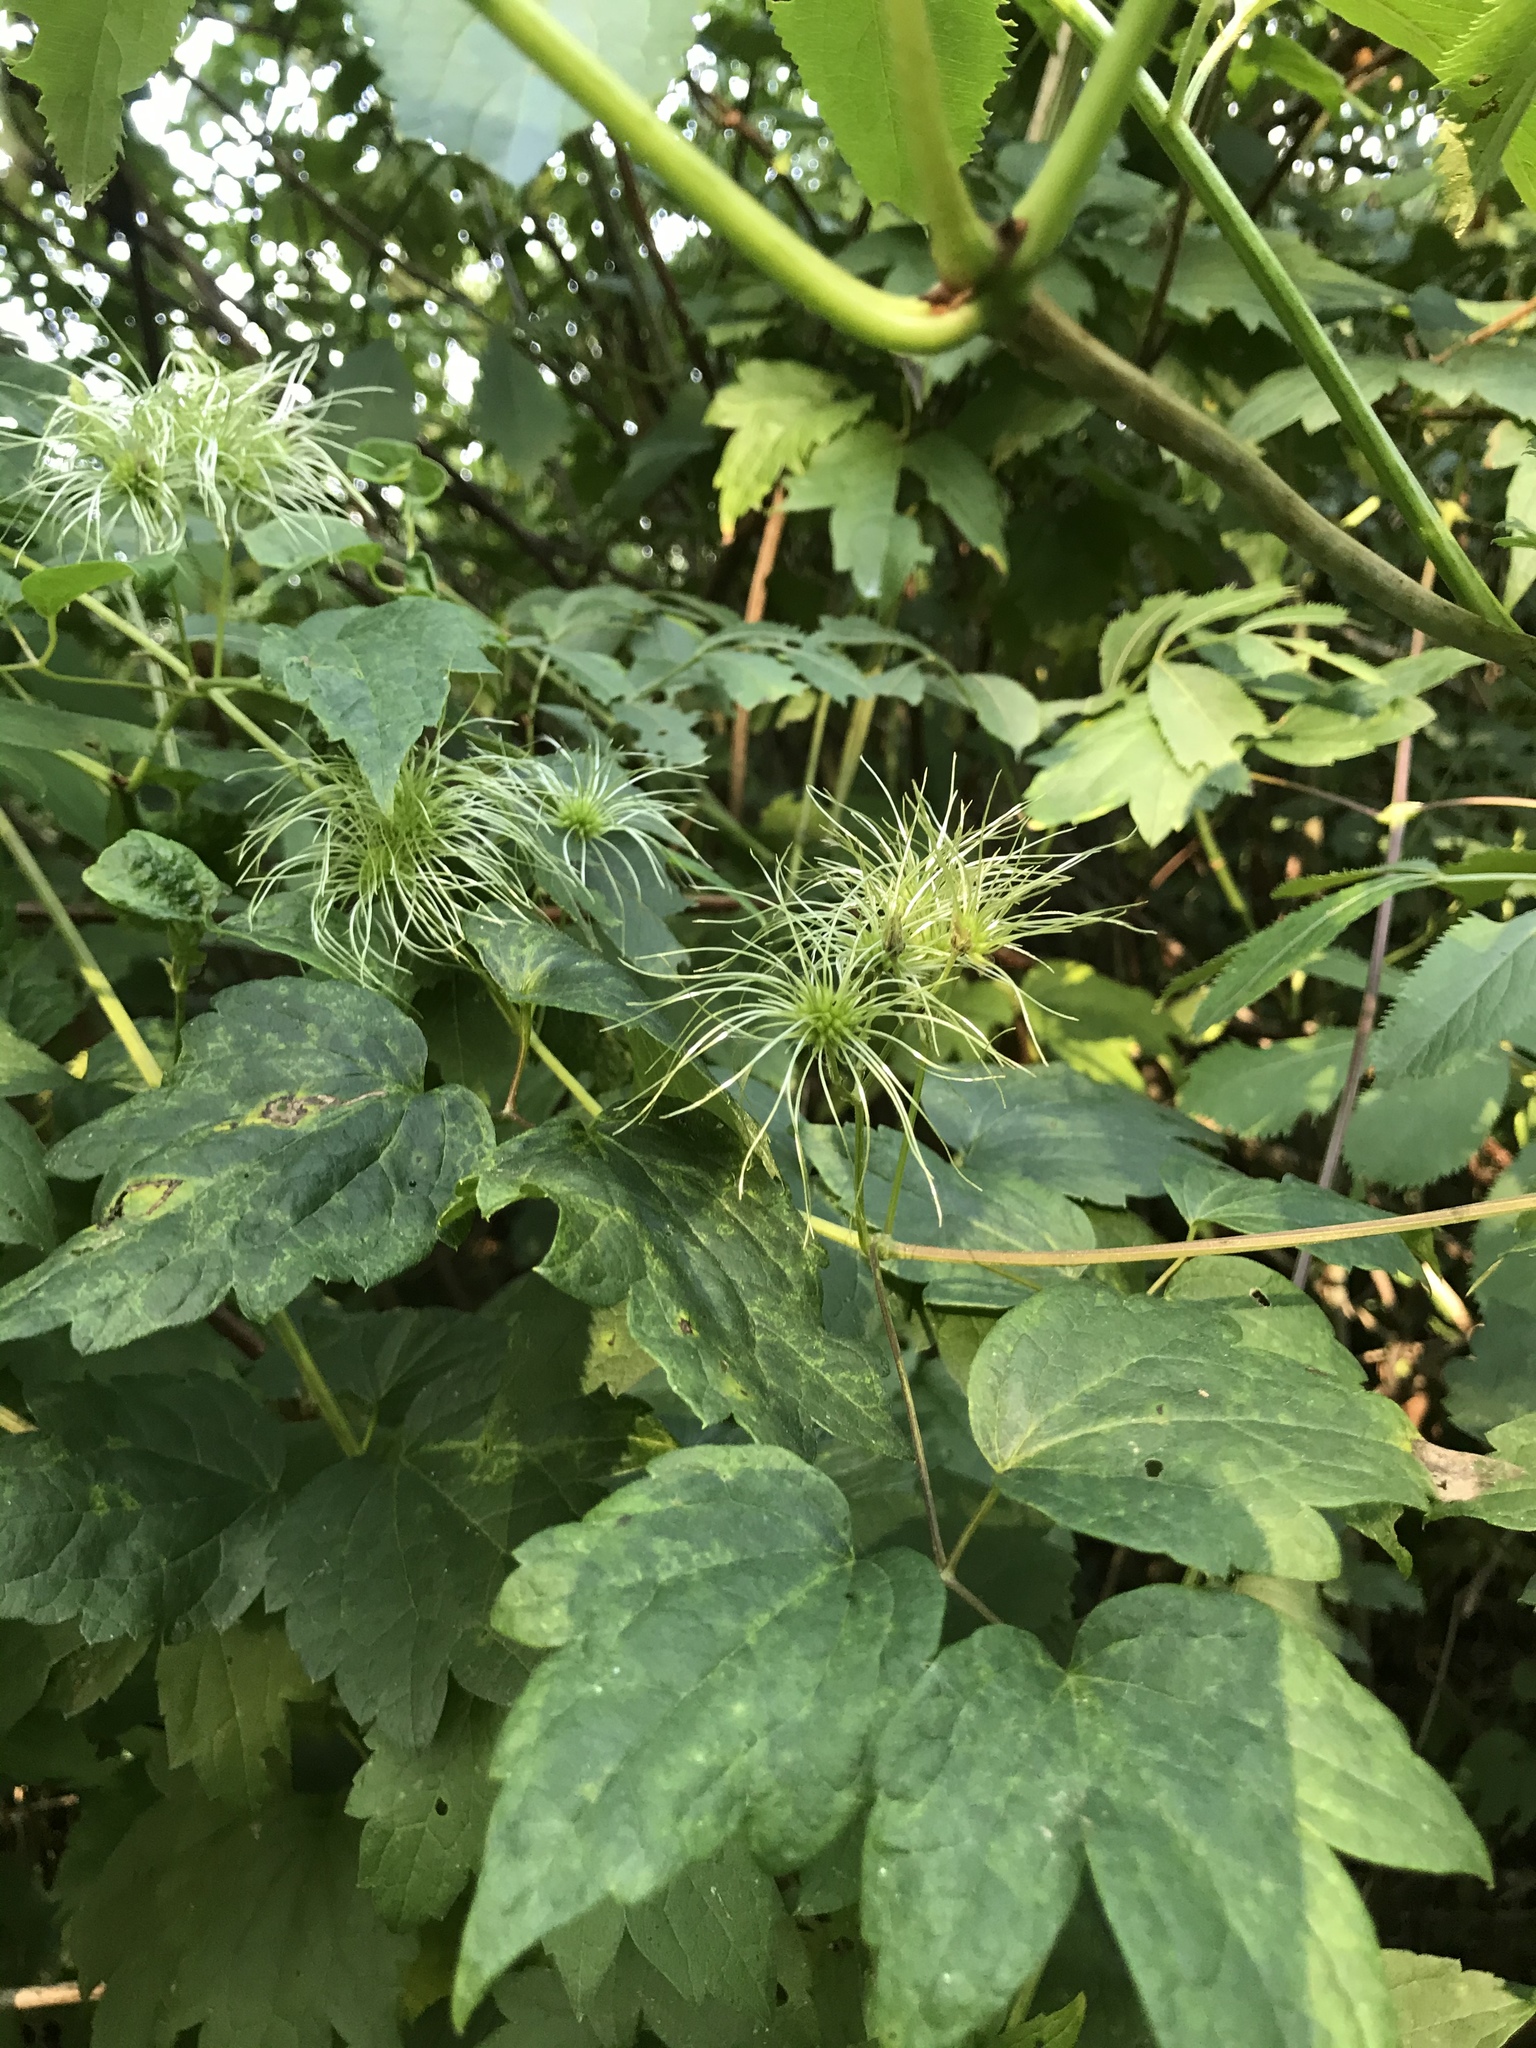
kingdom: Plantae
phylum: Tracheophyta
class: Magnoliopsida
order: Ranunculales
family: Ranunculaceae
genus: Clematis
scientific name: Clematis virginiana
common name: Virgin's-bower
